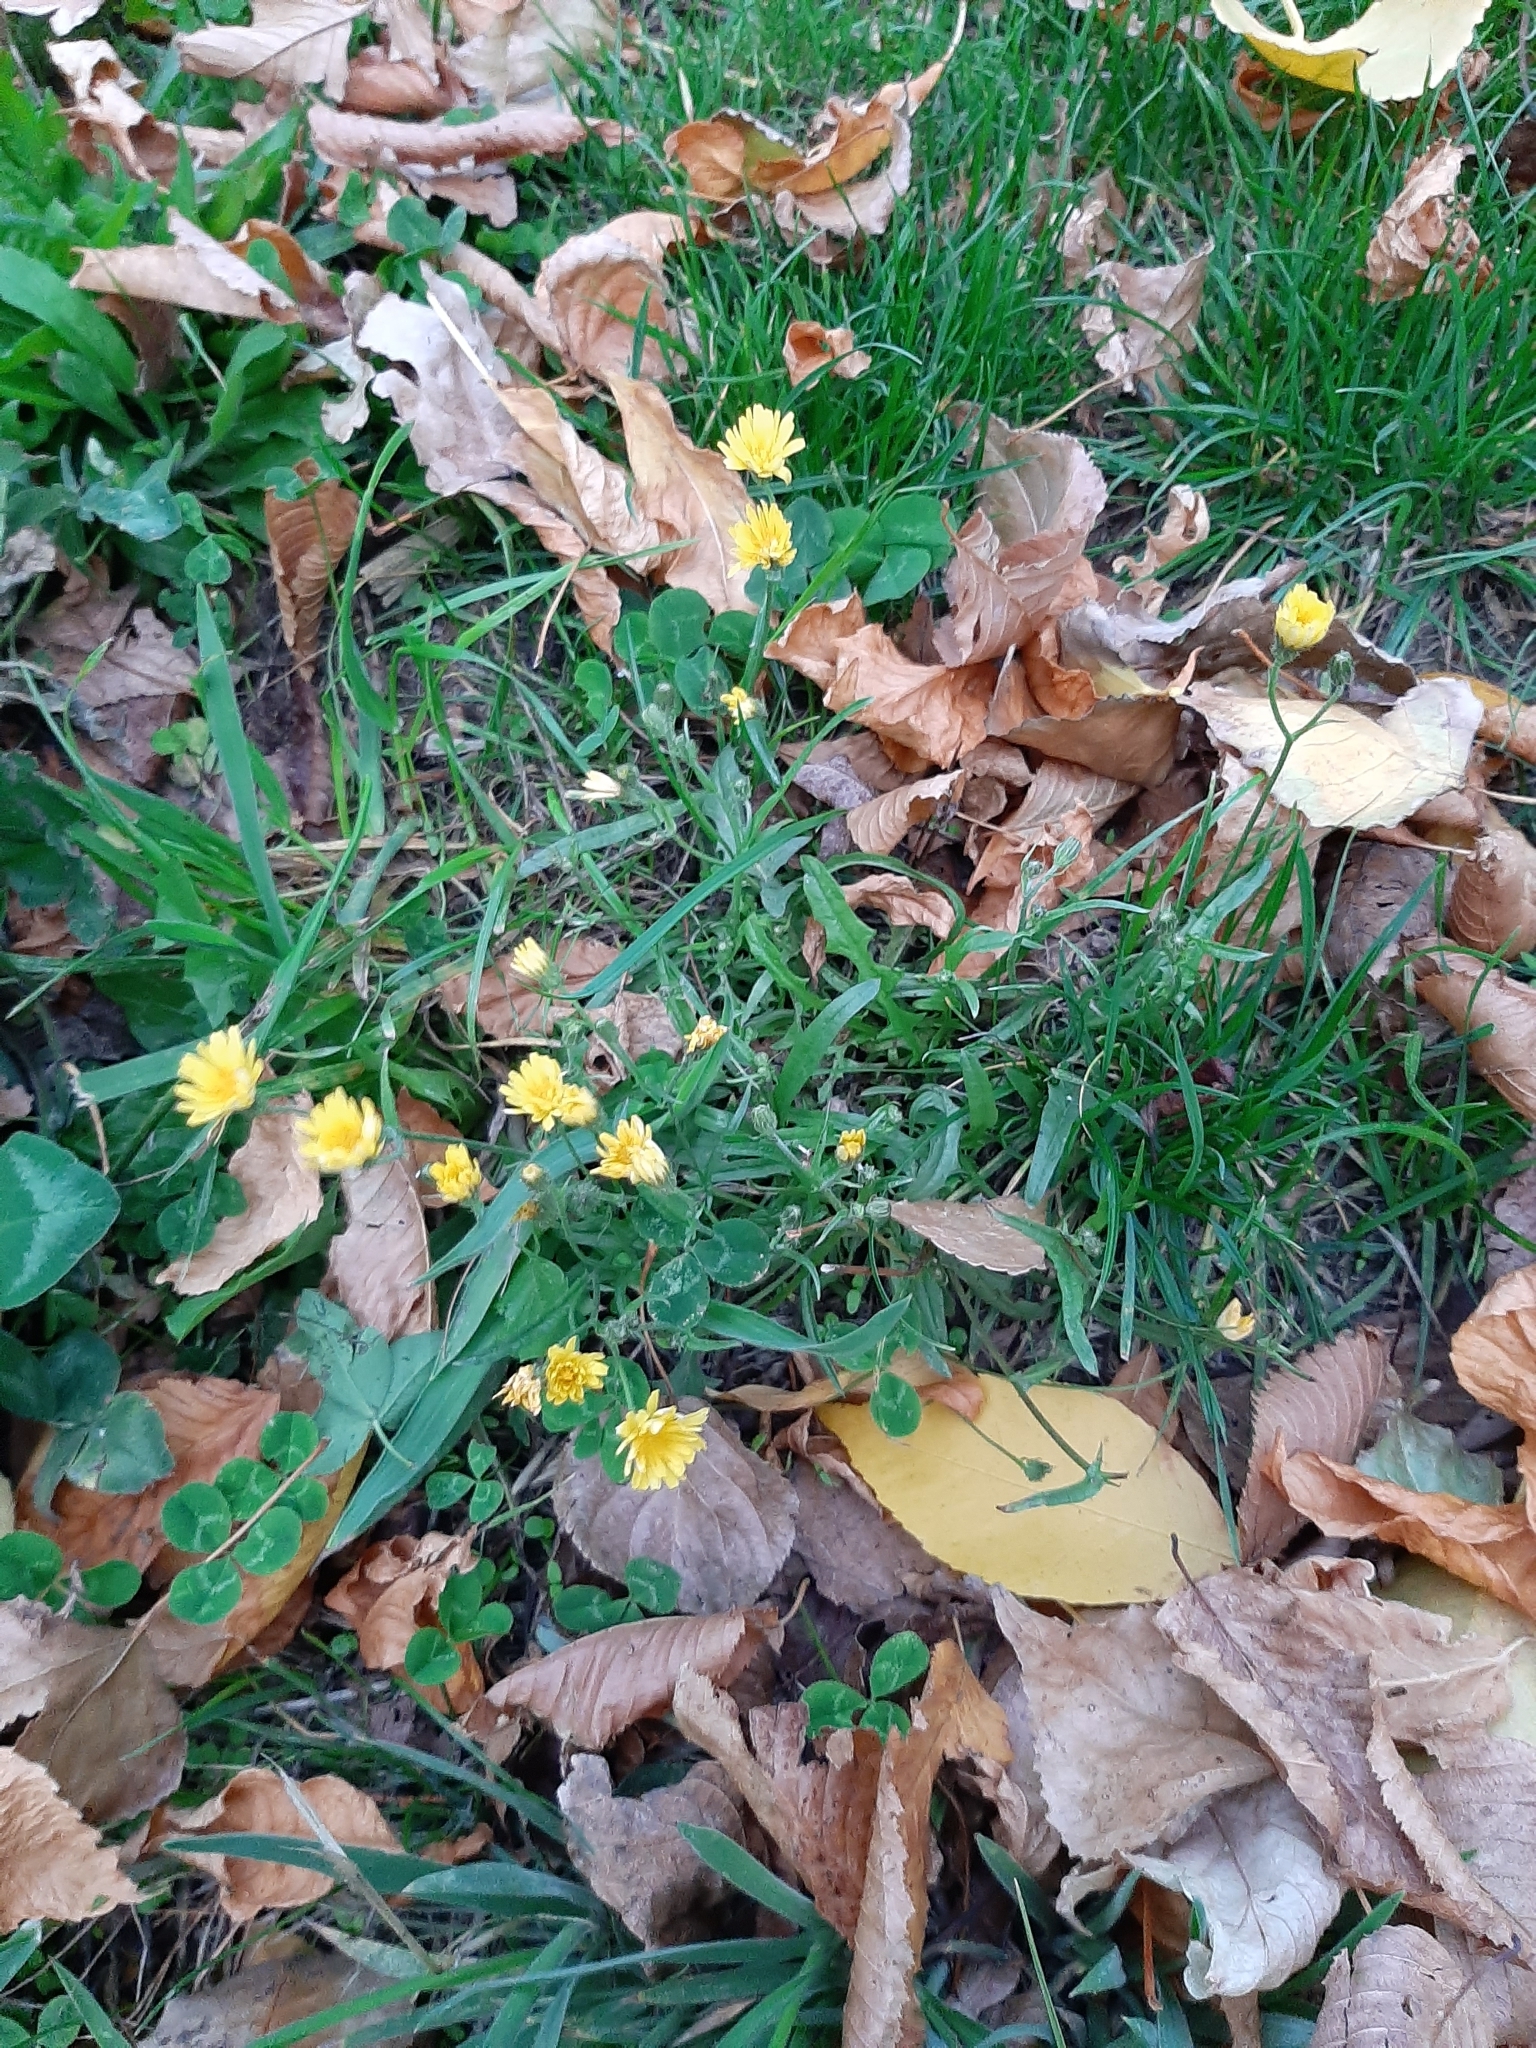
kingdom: Plantae
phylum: Tracheophyta
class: Magnoliopsida
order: Asterales
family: Asteraceae
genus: Crepis
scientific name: Crepis capillaris
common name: Smooth hawksbeard
